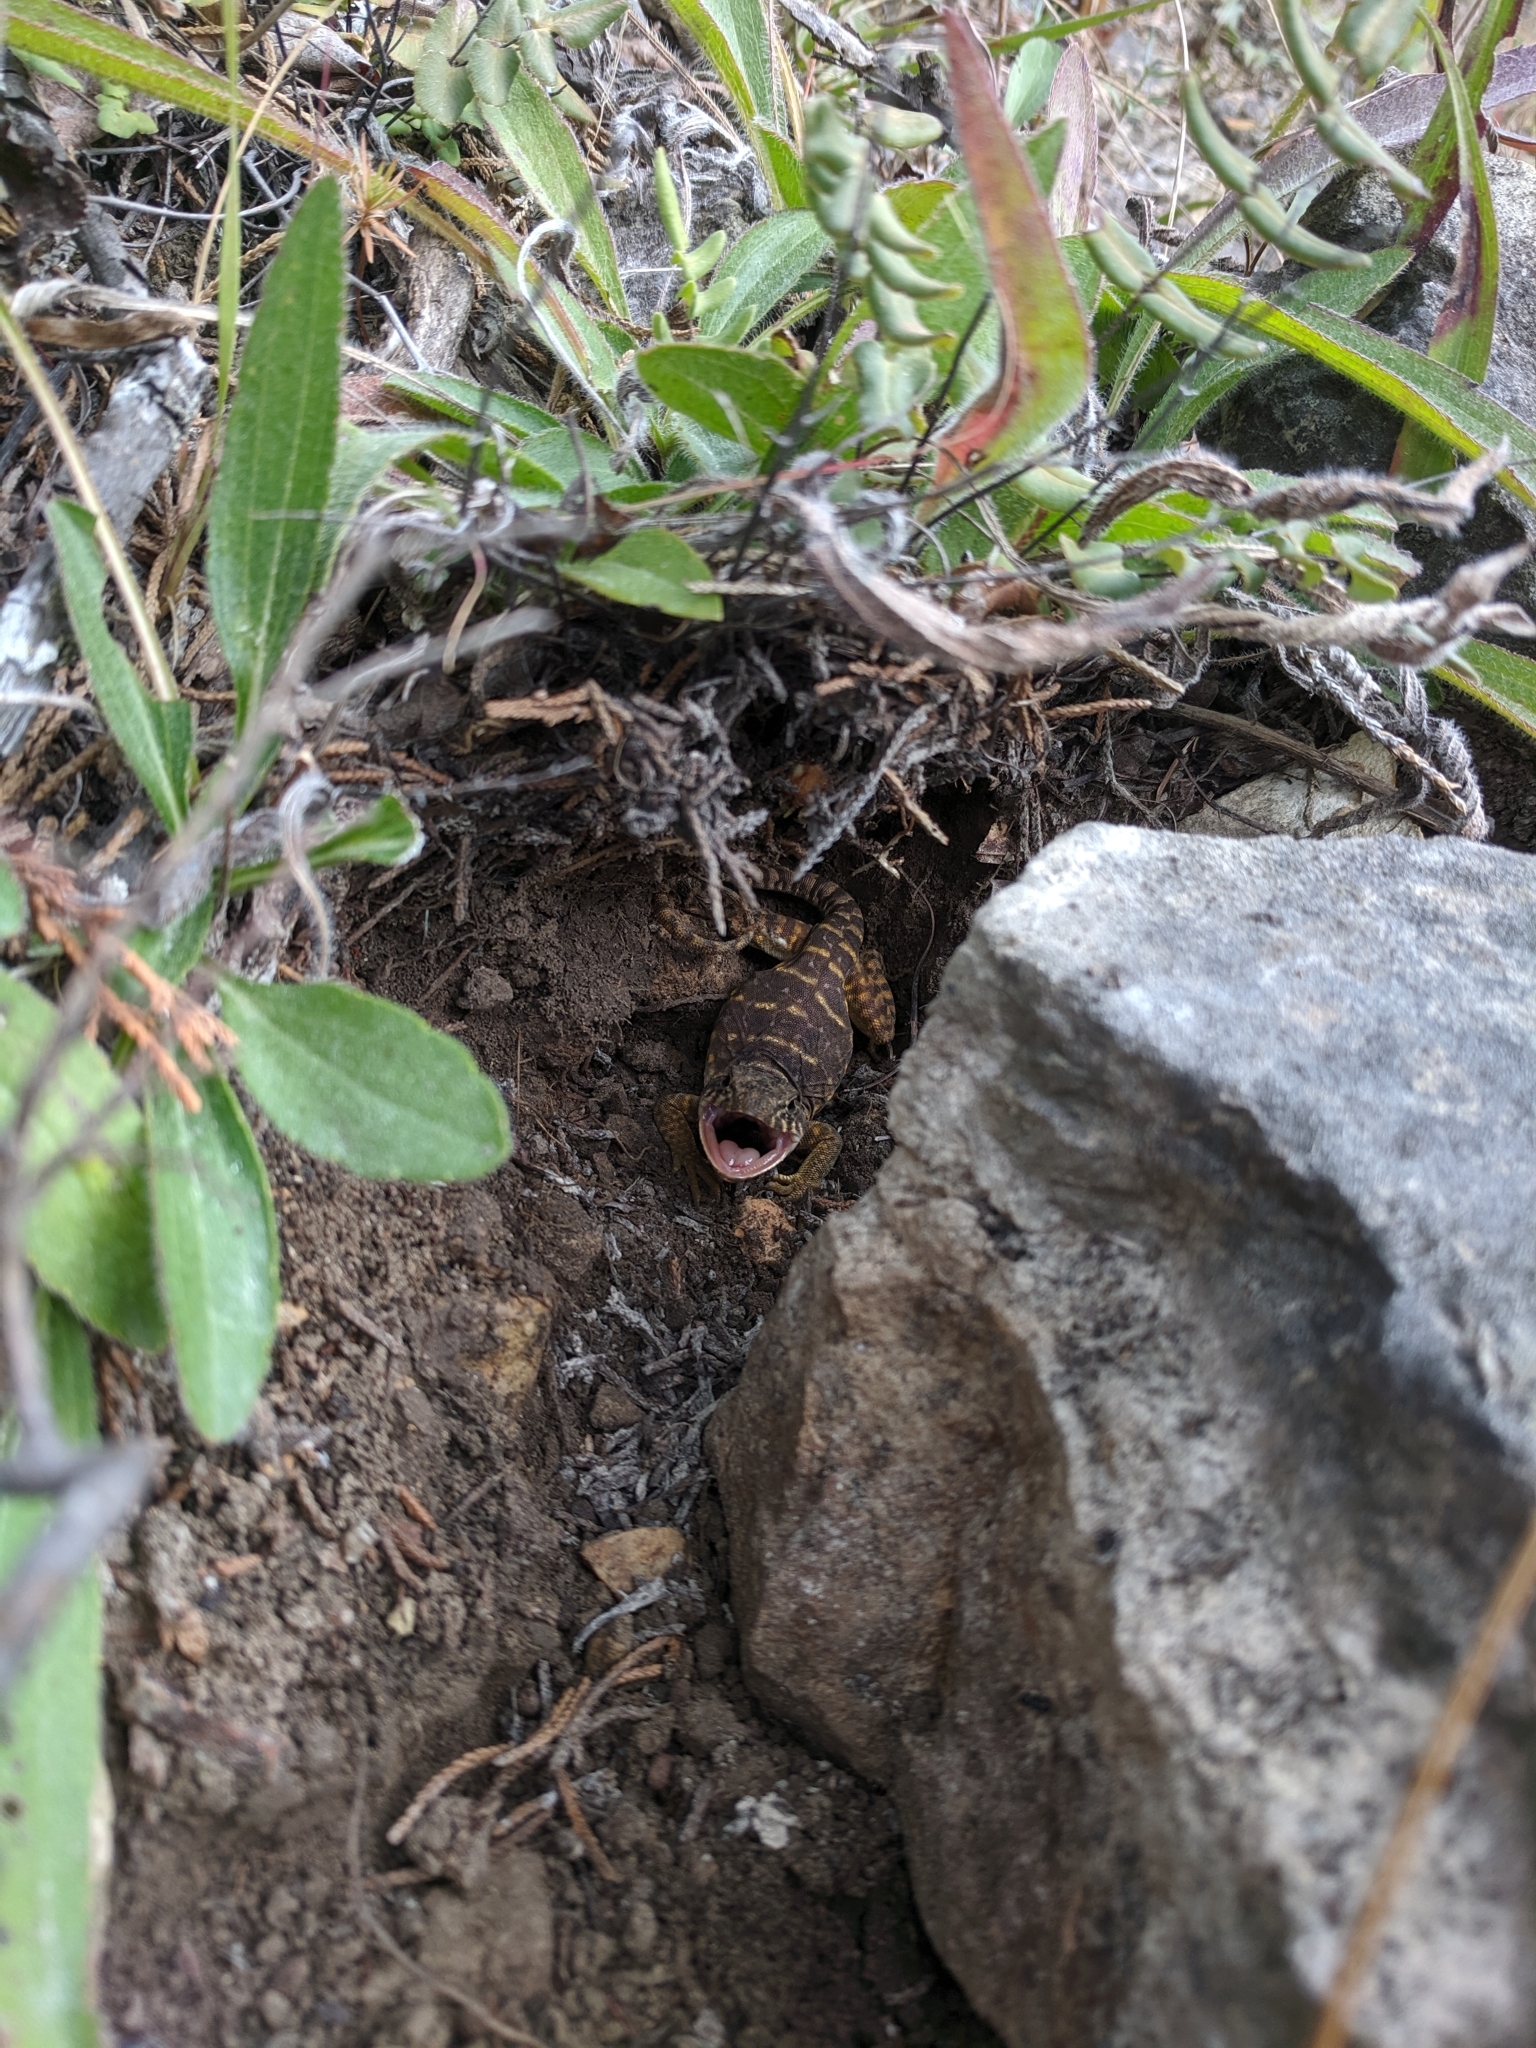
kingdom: Animalia
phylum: Chordata
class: Squamata
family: Crotaphytidae
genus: Crotaphytus
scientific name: Crotaphytus collaris
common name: Collared lizard
